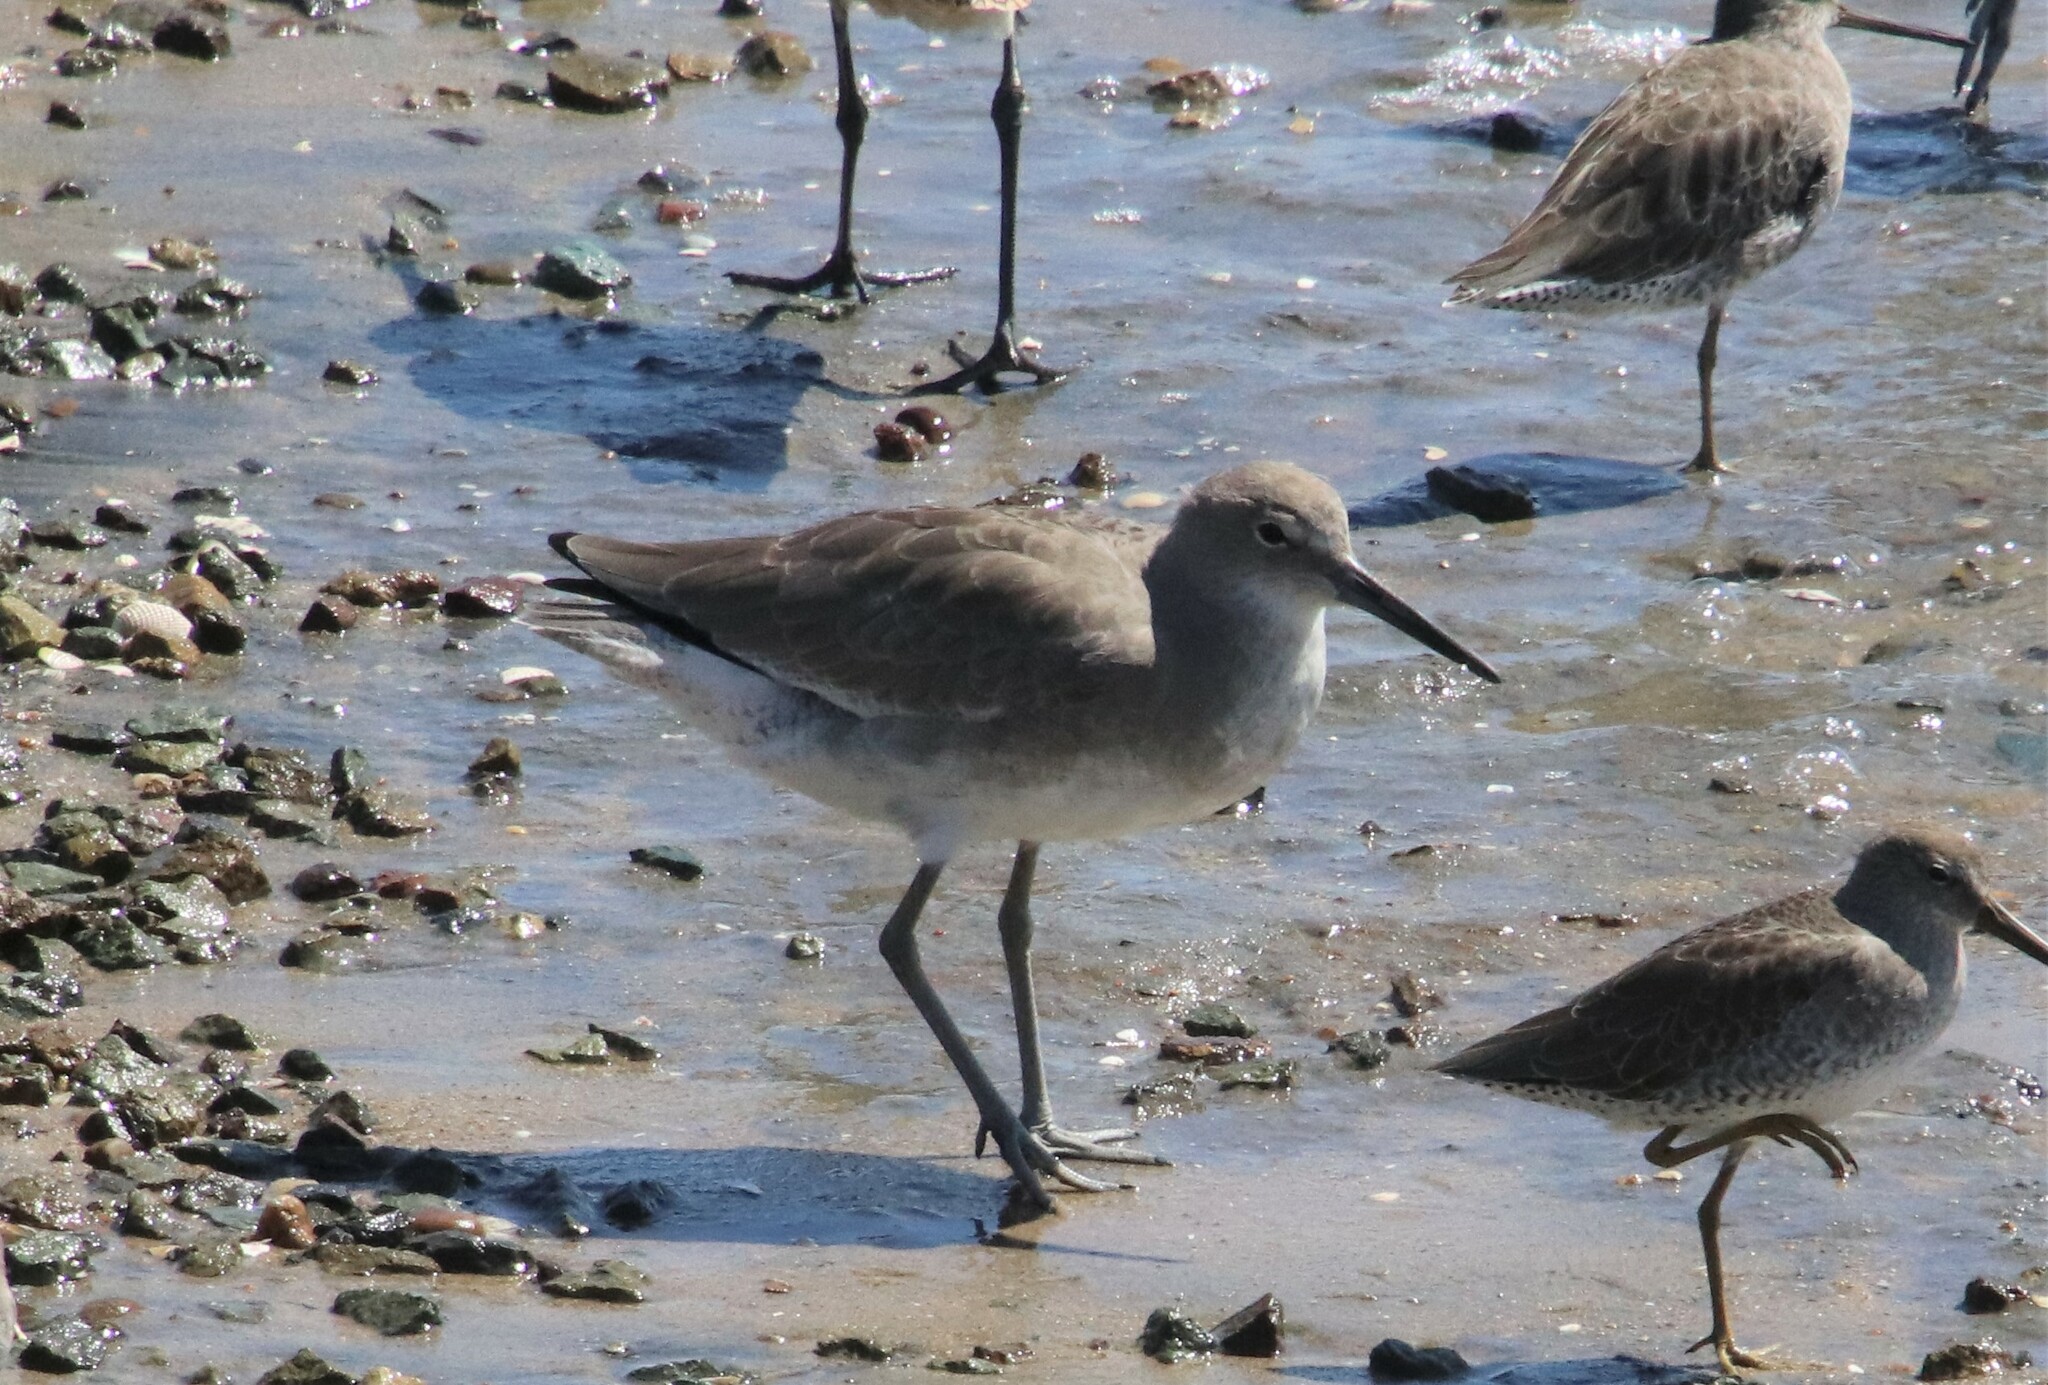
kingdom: Animalia
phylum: Chordata
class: Aves
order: Charadriiformes
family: Scolopacidae
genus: Tringa
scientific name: Tringa semipalmata
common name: Willet
